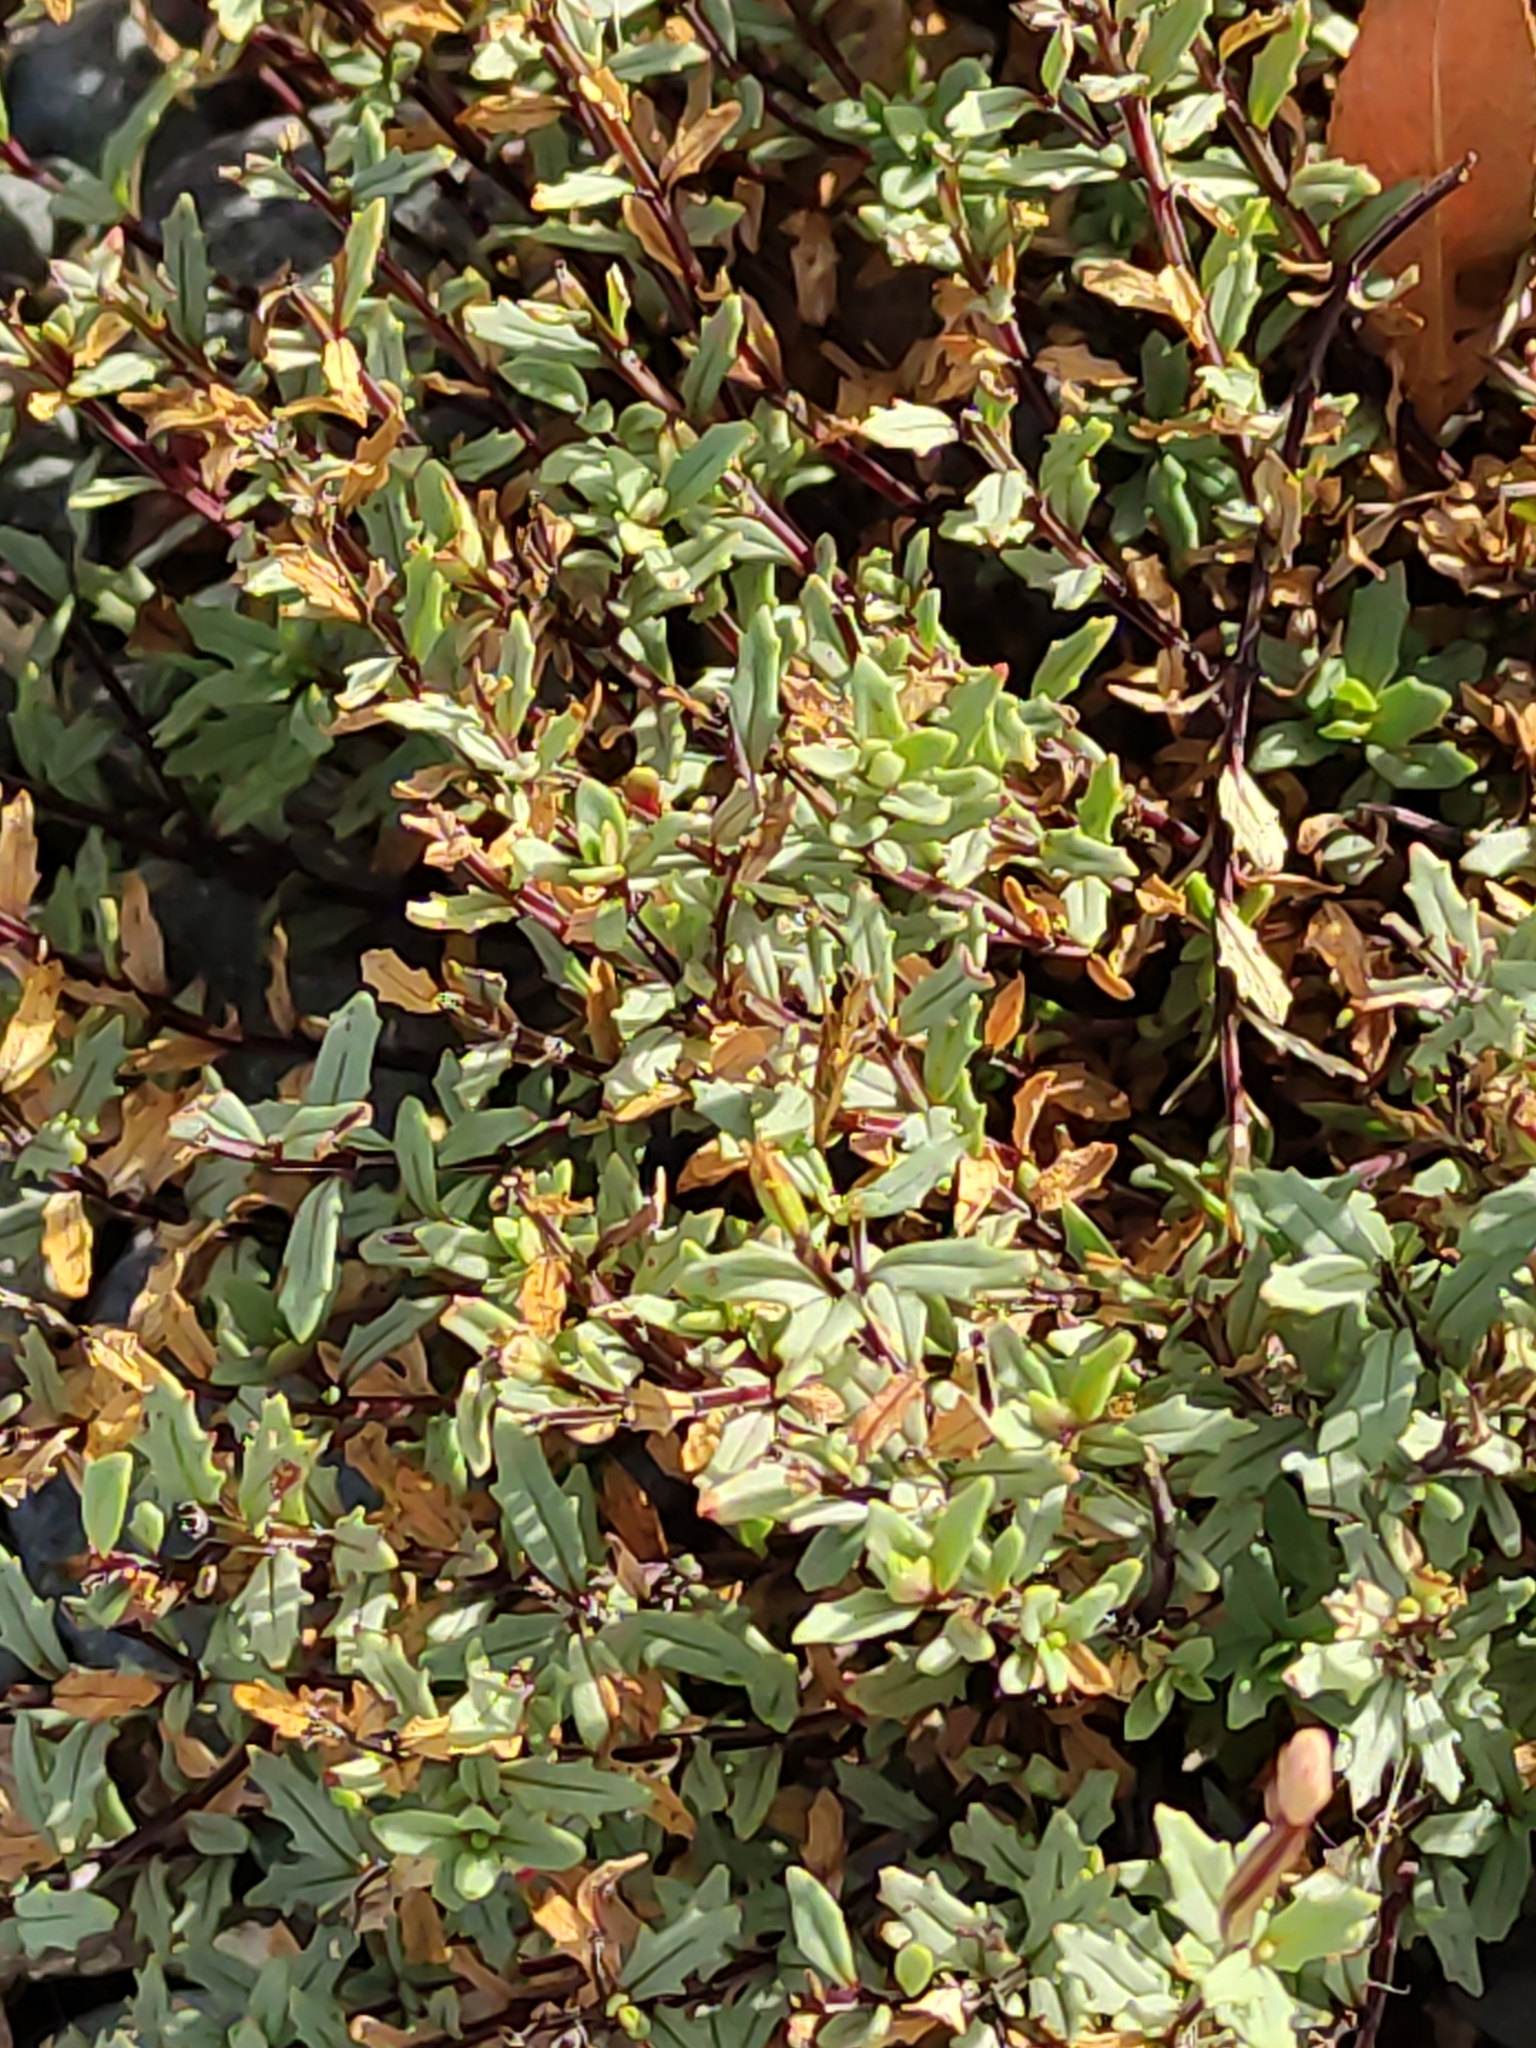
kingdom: Plantae
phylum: Tracheophyta
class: Magnoliopsida
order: Myrtales
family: Onagraceae
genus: Epilobium
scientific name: Epilobium melanocaulon
